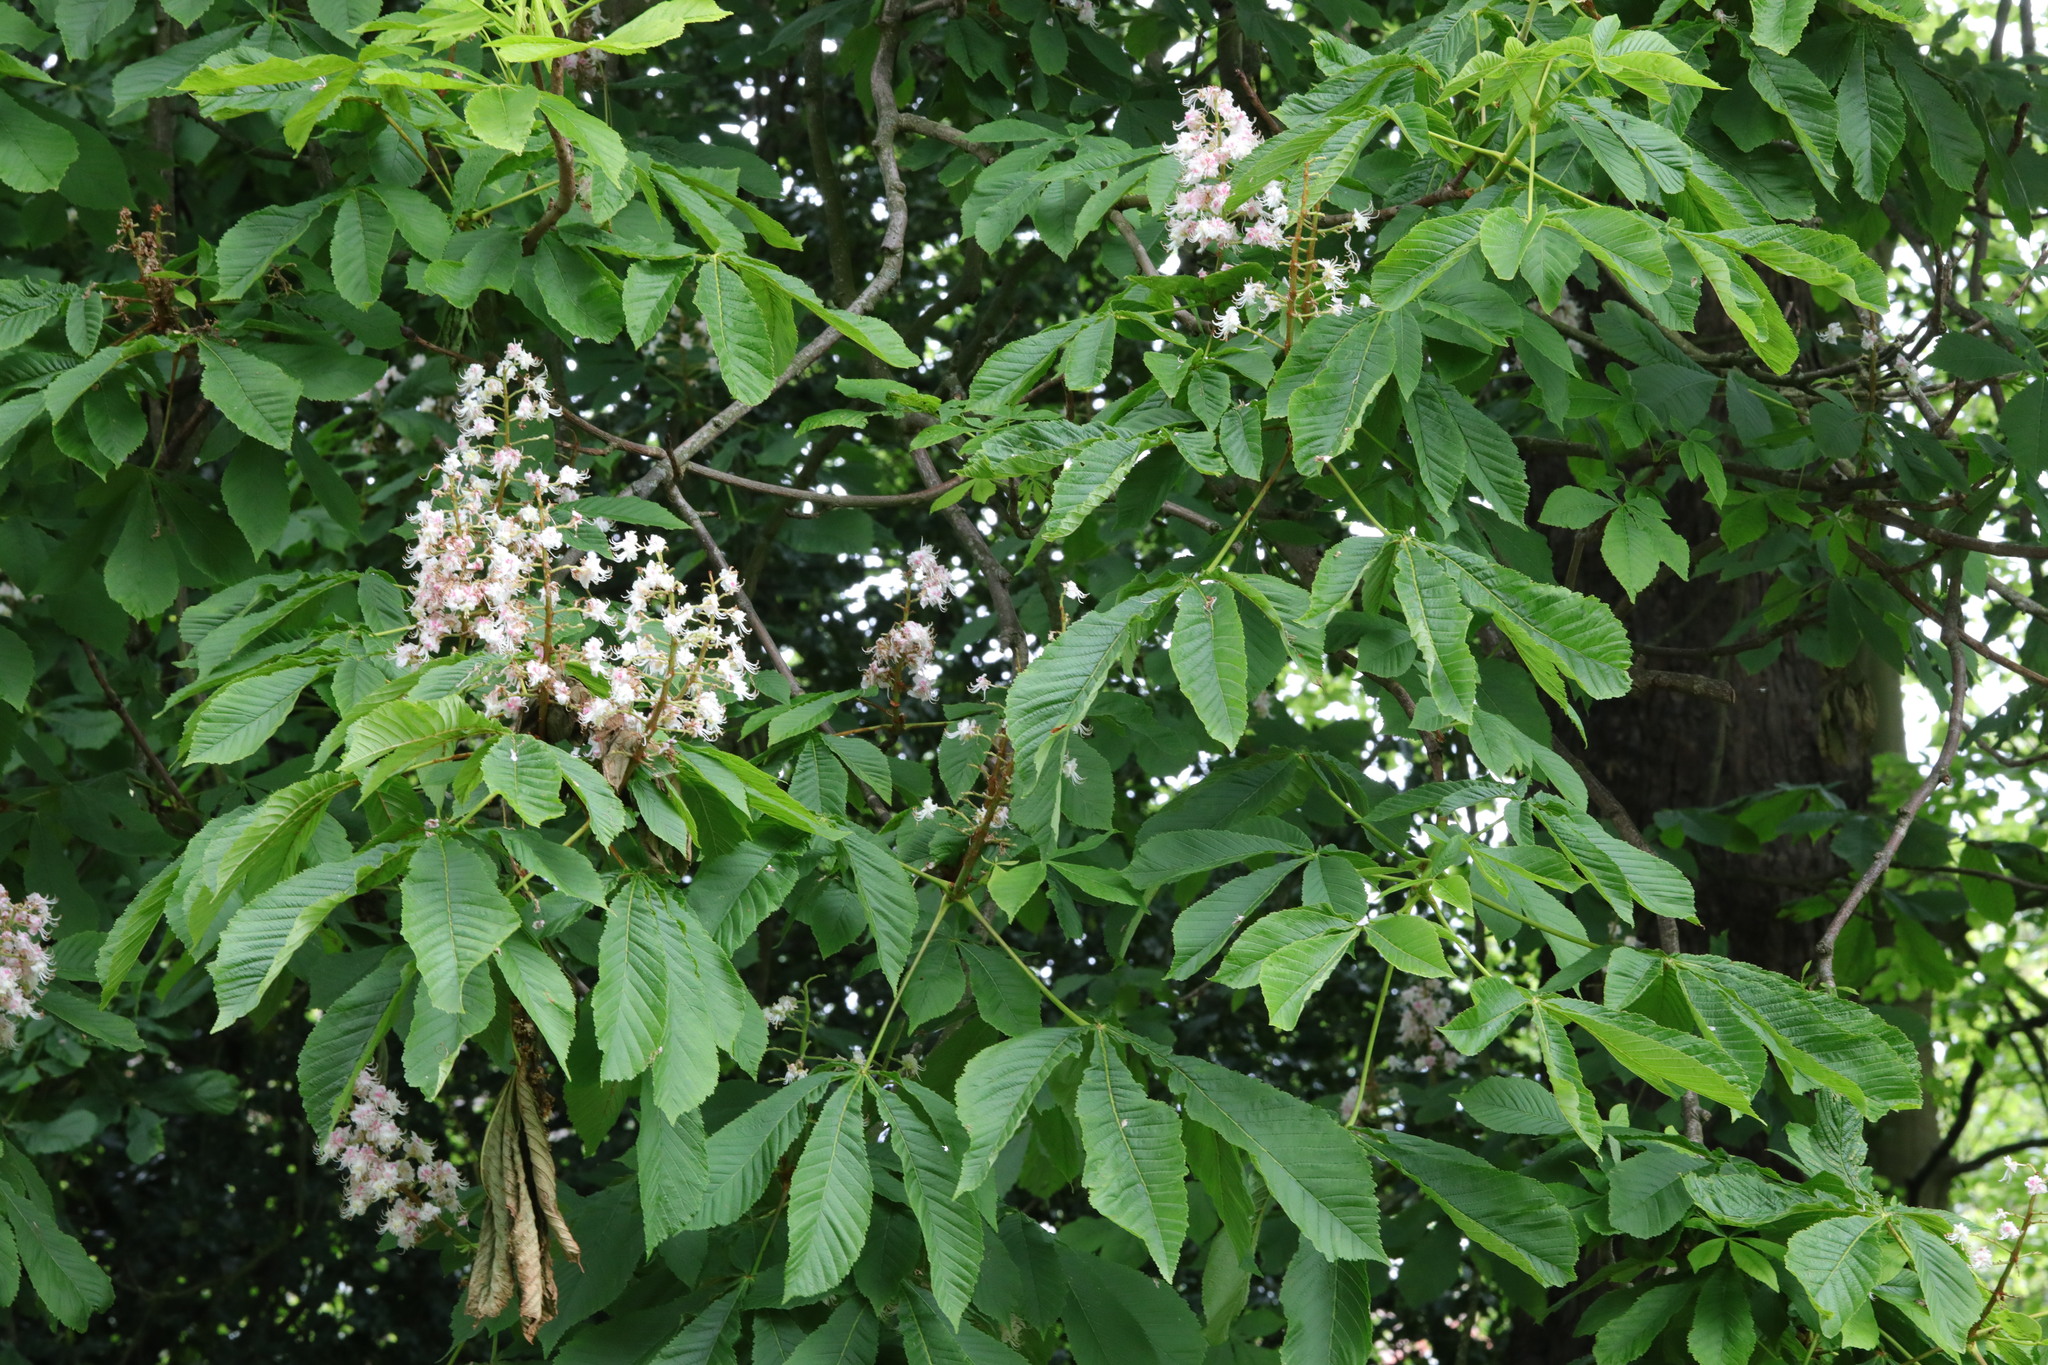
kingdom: Plantae
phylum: Tracheophyta
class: Magnoliopsida
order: Sapindales
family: Sapindaceae
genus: Aesculus
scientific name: Aesculus hippocastanum
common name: Horse-chestnut
